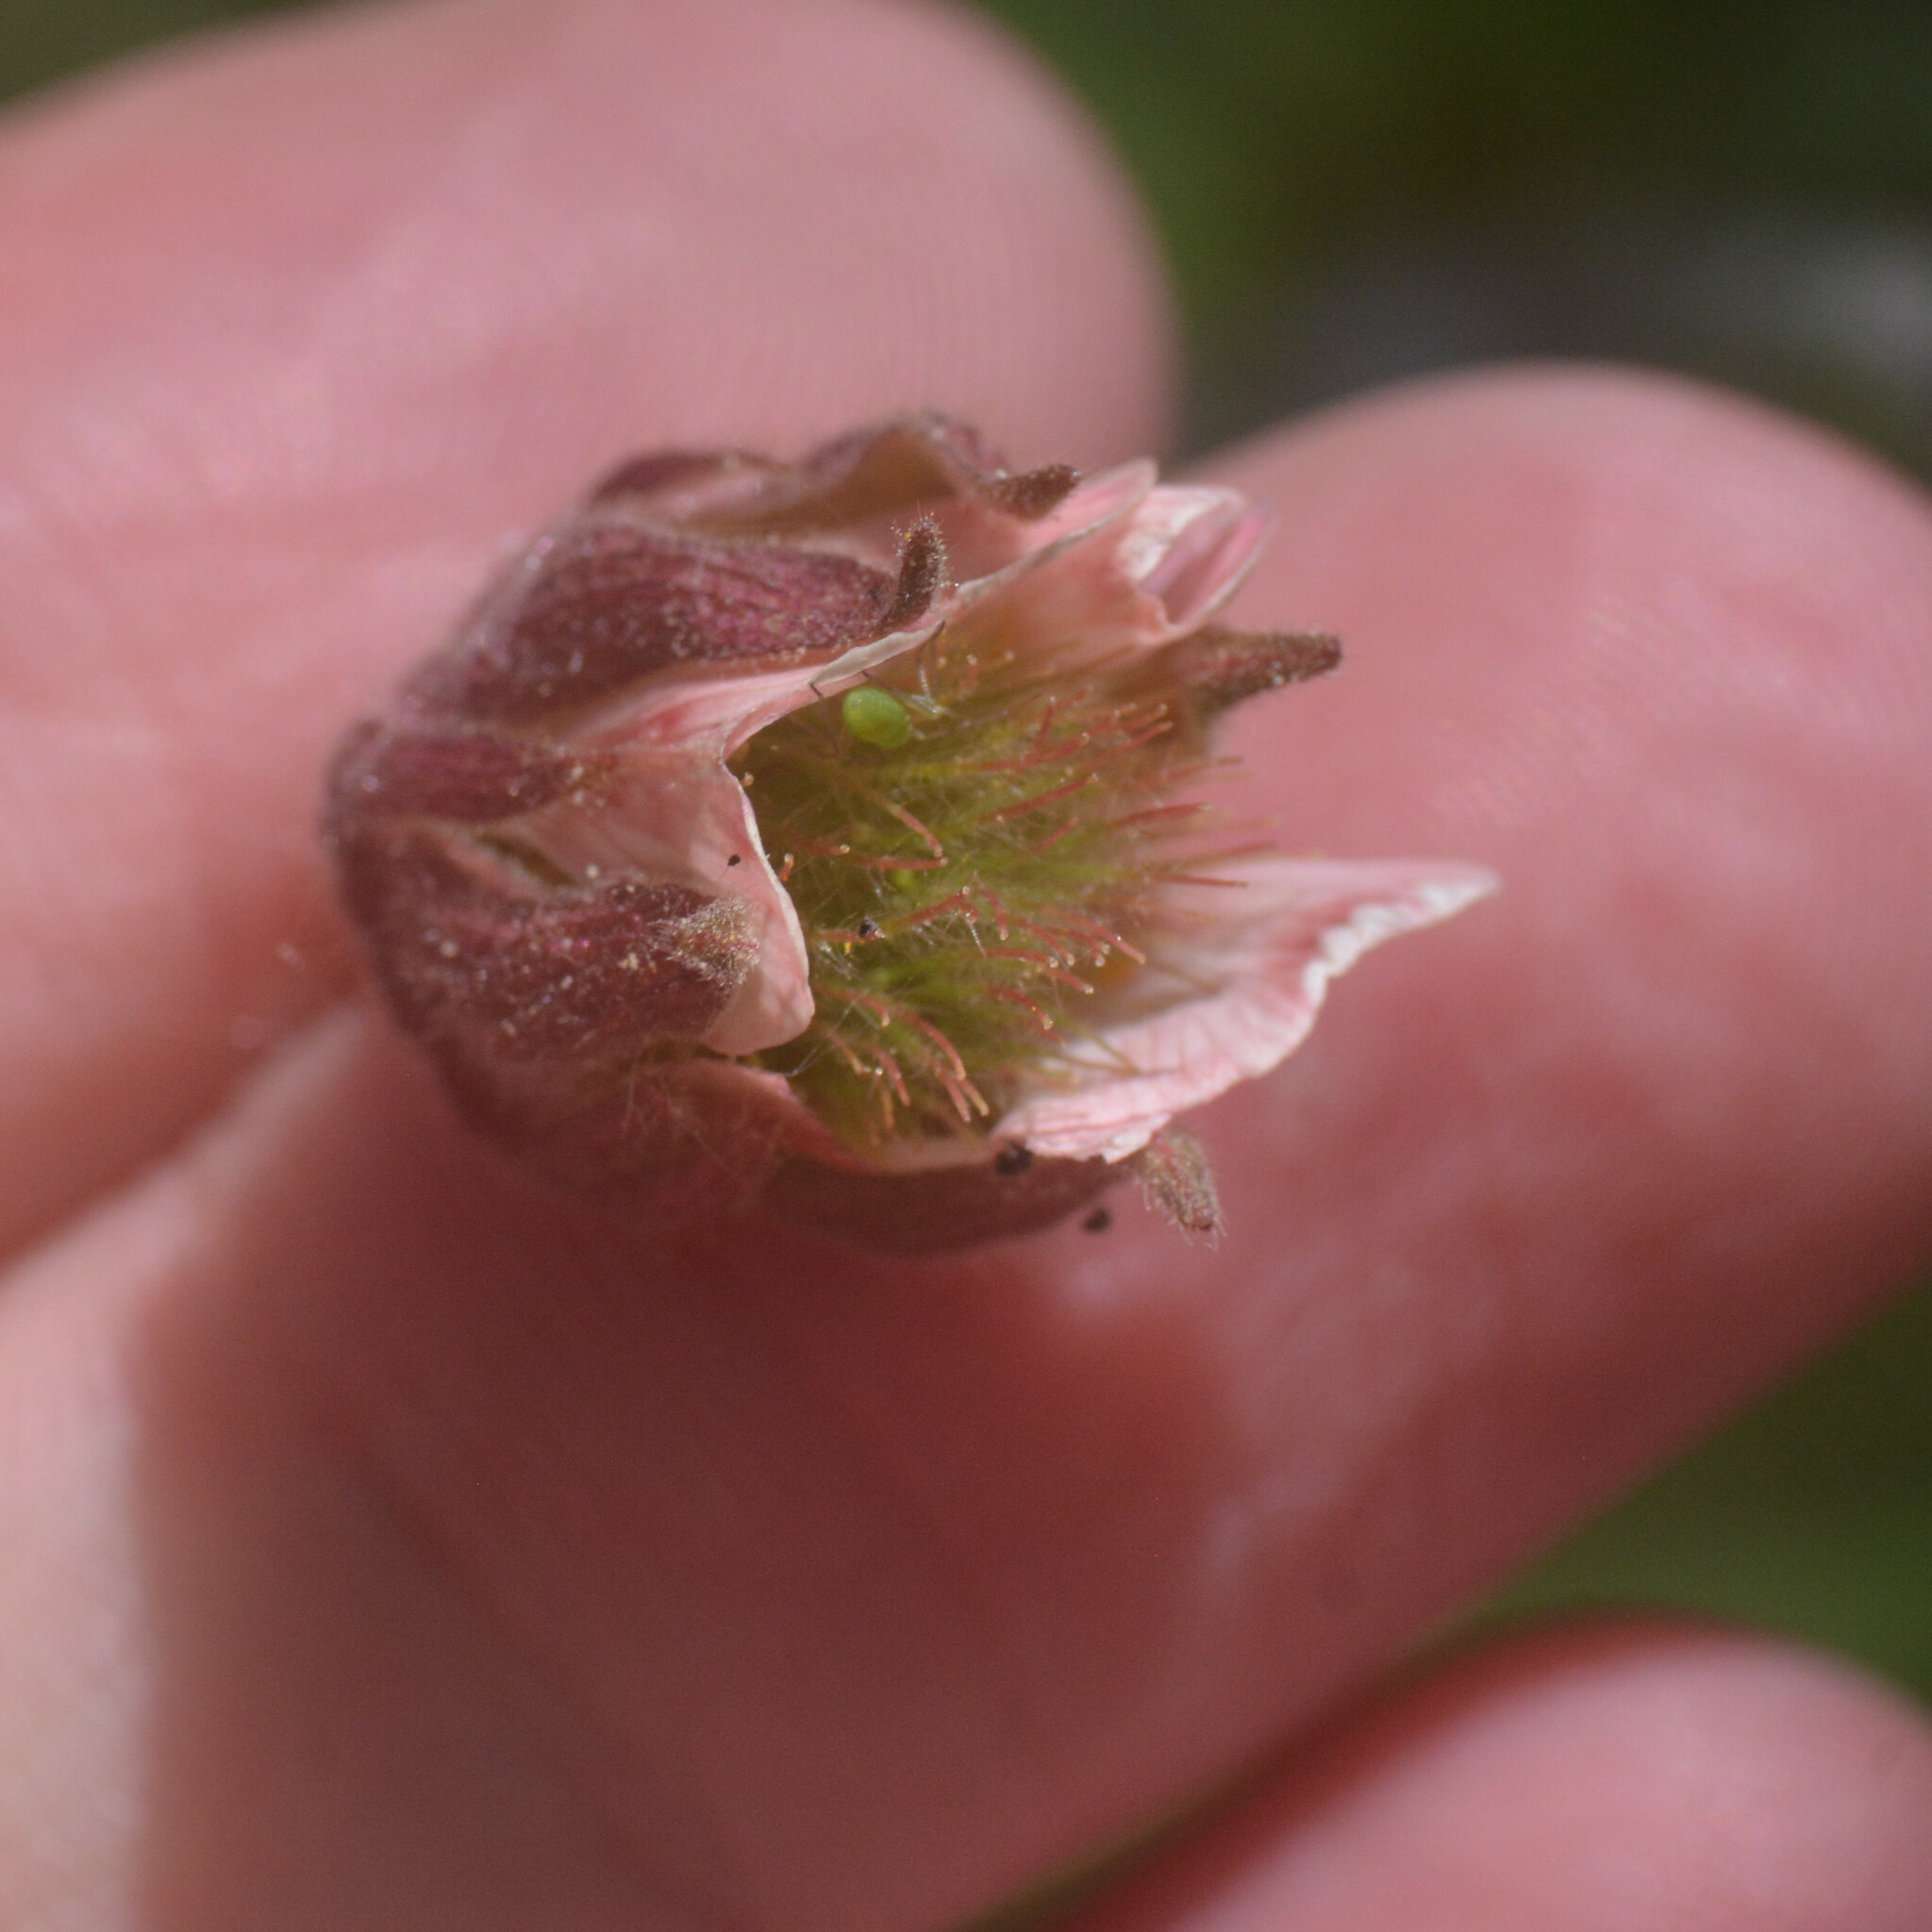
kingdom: Plantae
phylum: Tracheophyta
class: Magnoliopsida
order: Rosales
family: Rosaceae
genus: Geum
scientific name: Geum rivale
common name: Water avens
